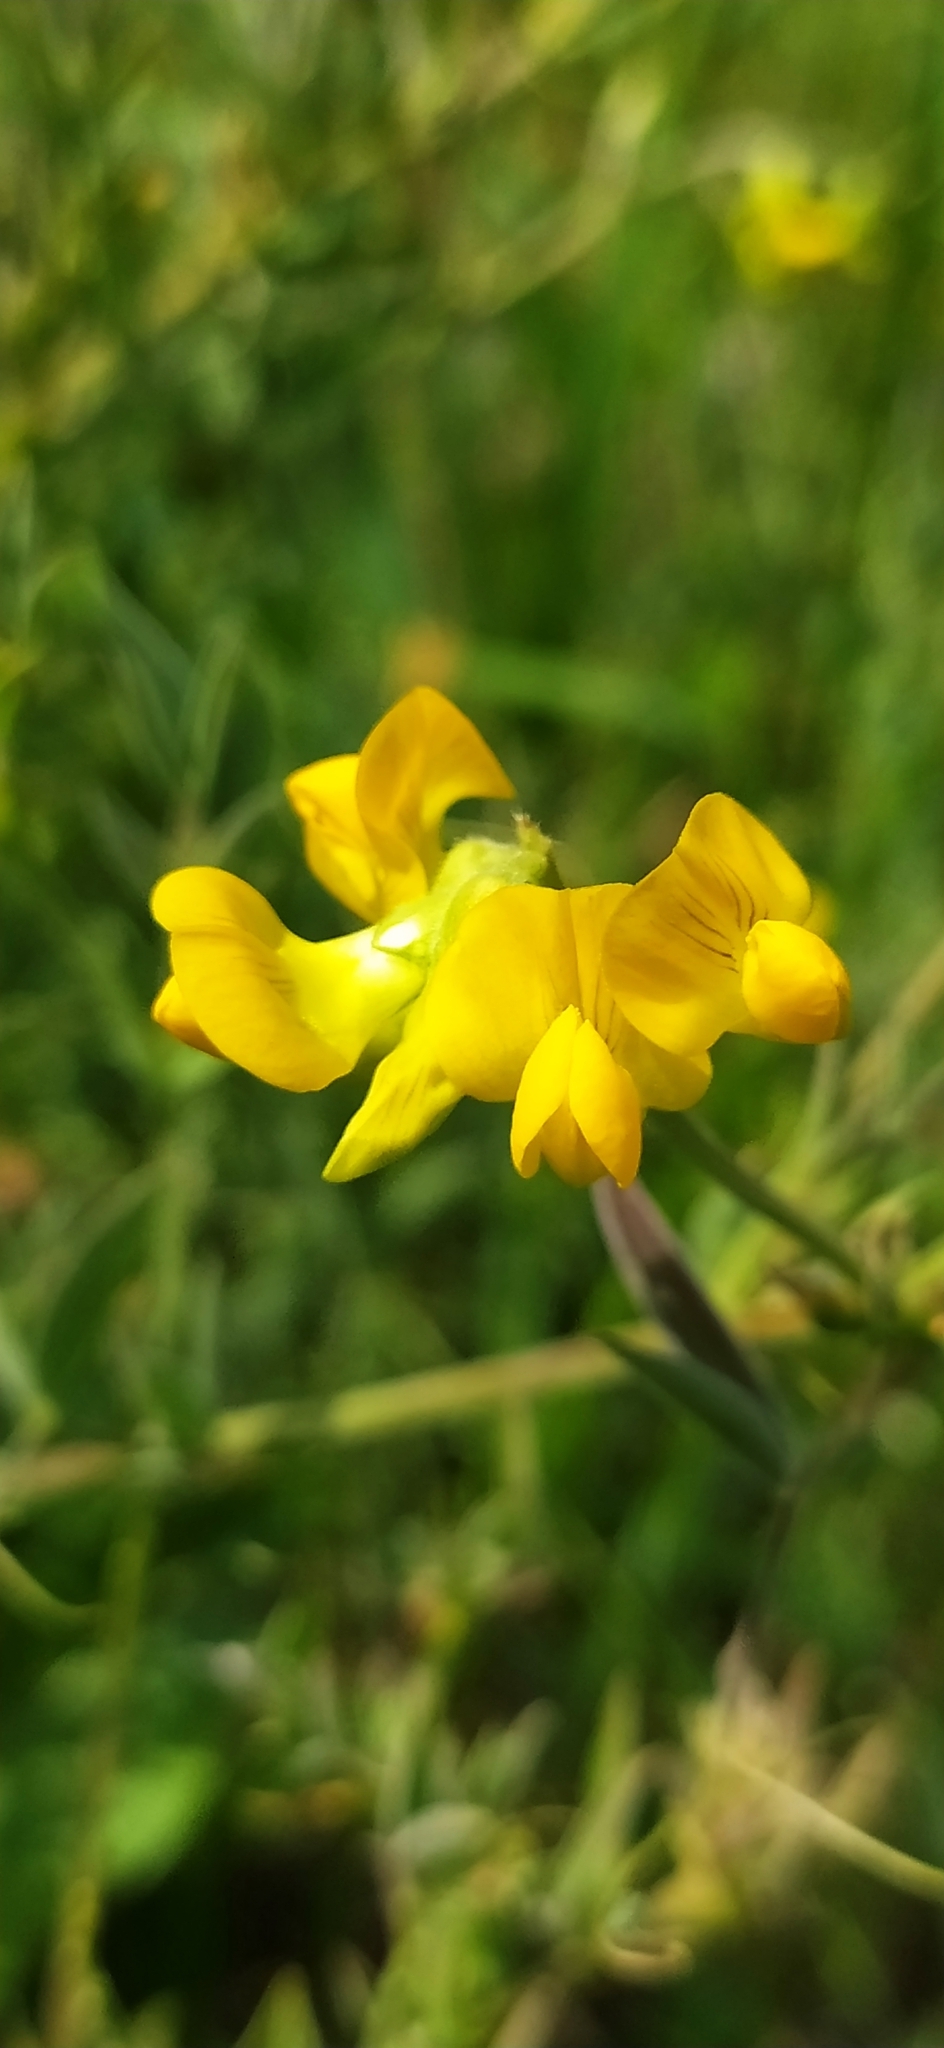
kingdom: Plantae
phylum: Tracheophyta
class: Magnoliopsida
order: Fabales
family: Fabaceae
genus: Lathyrus
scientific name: Lathyrus pratensis
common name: Meadow vetchling
